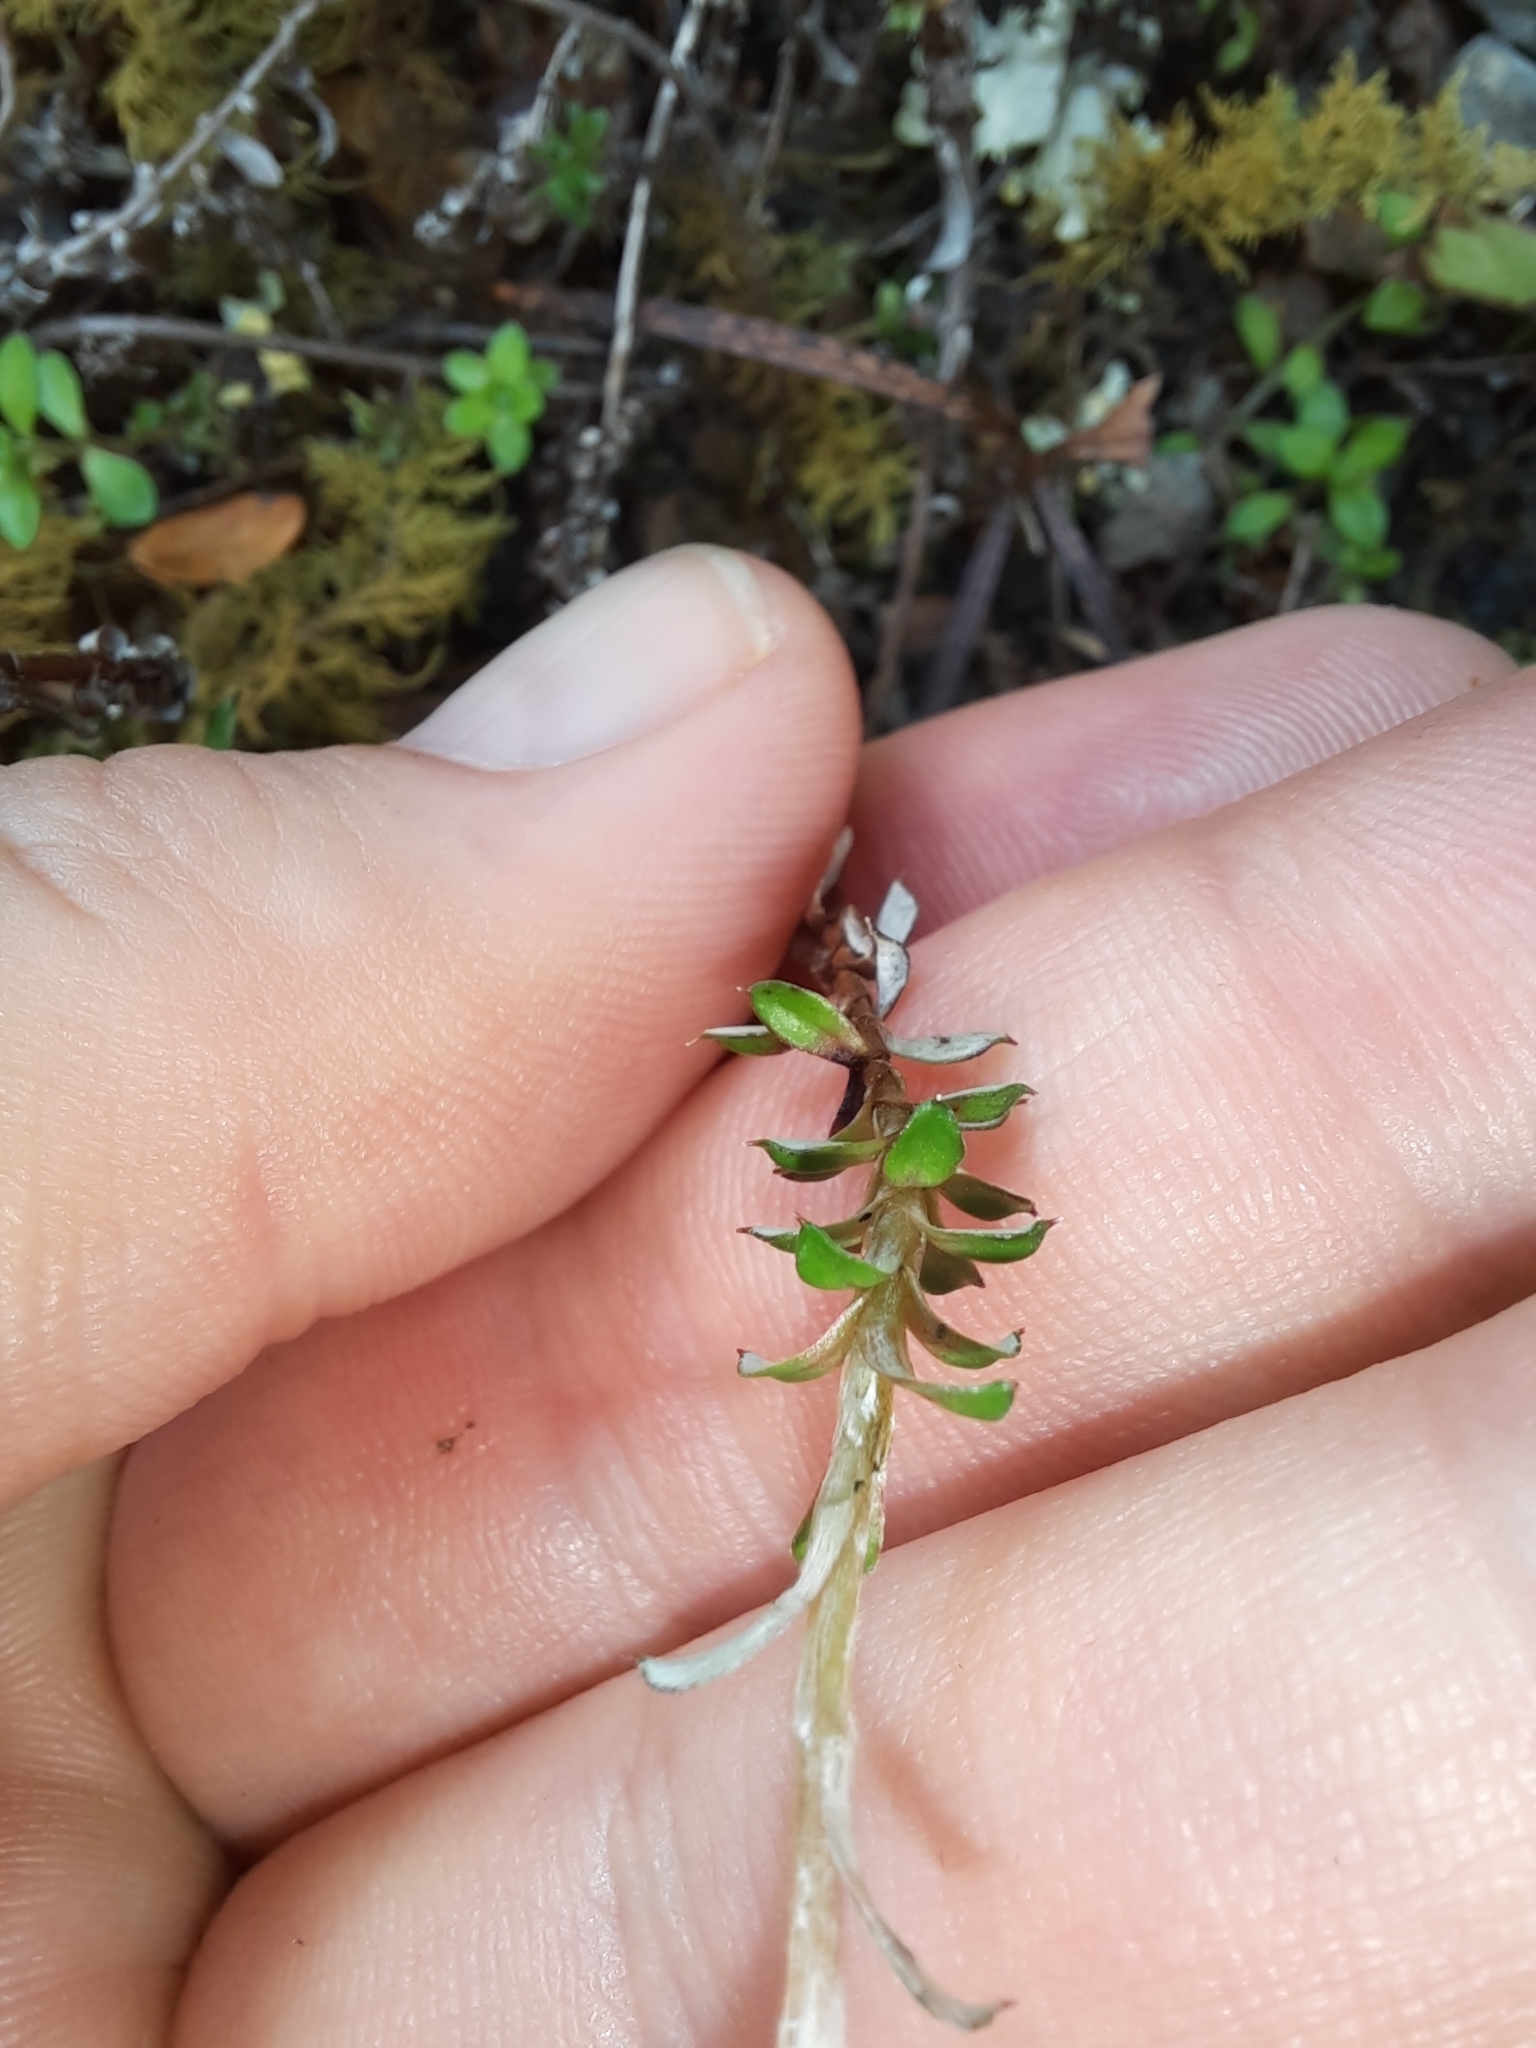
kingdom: Plantae
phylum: Tracheophyta
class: Magnoliopsida
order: Asterales
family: Asteraceae
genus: Anaphalioides
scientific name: Anaphalioides bellidioides
